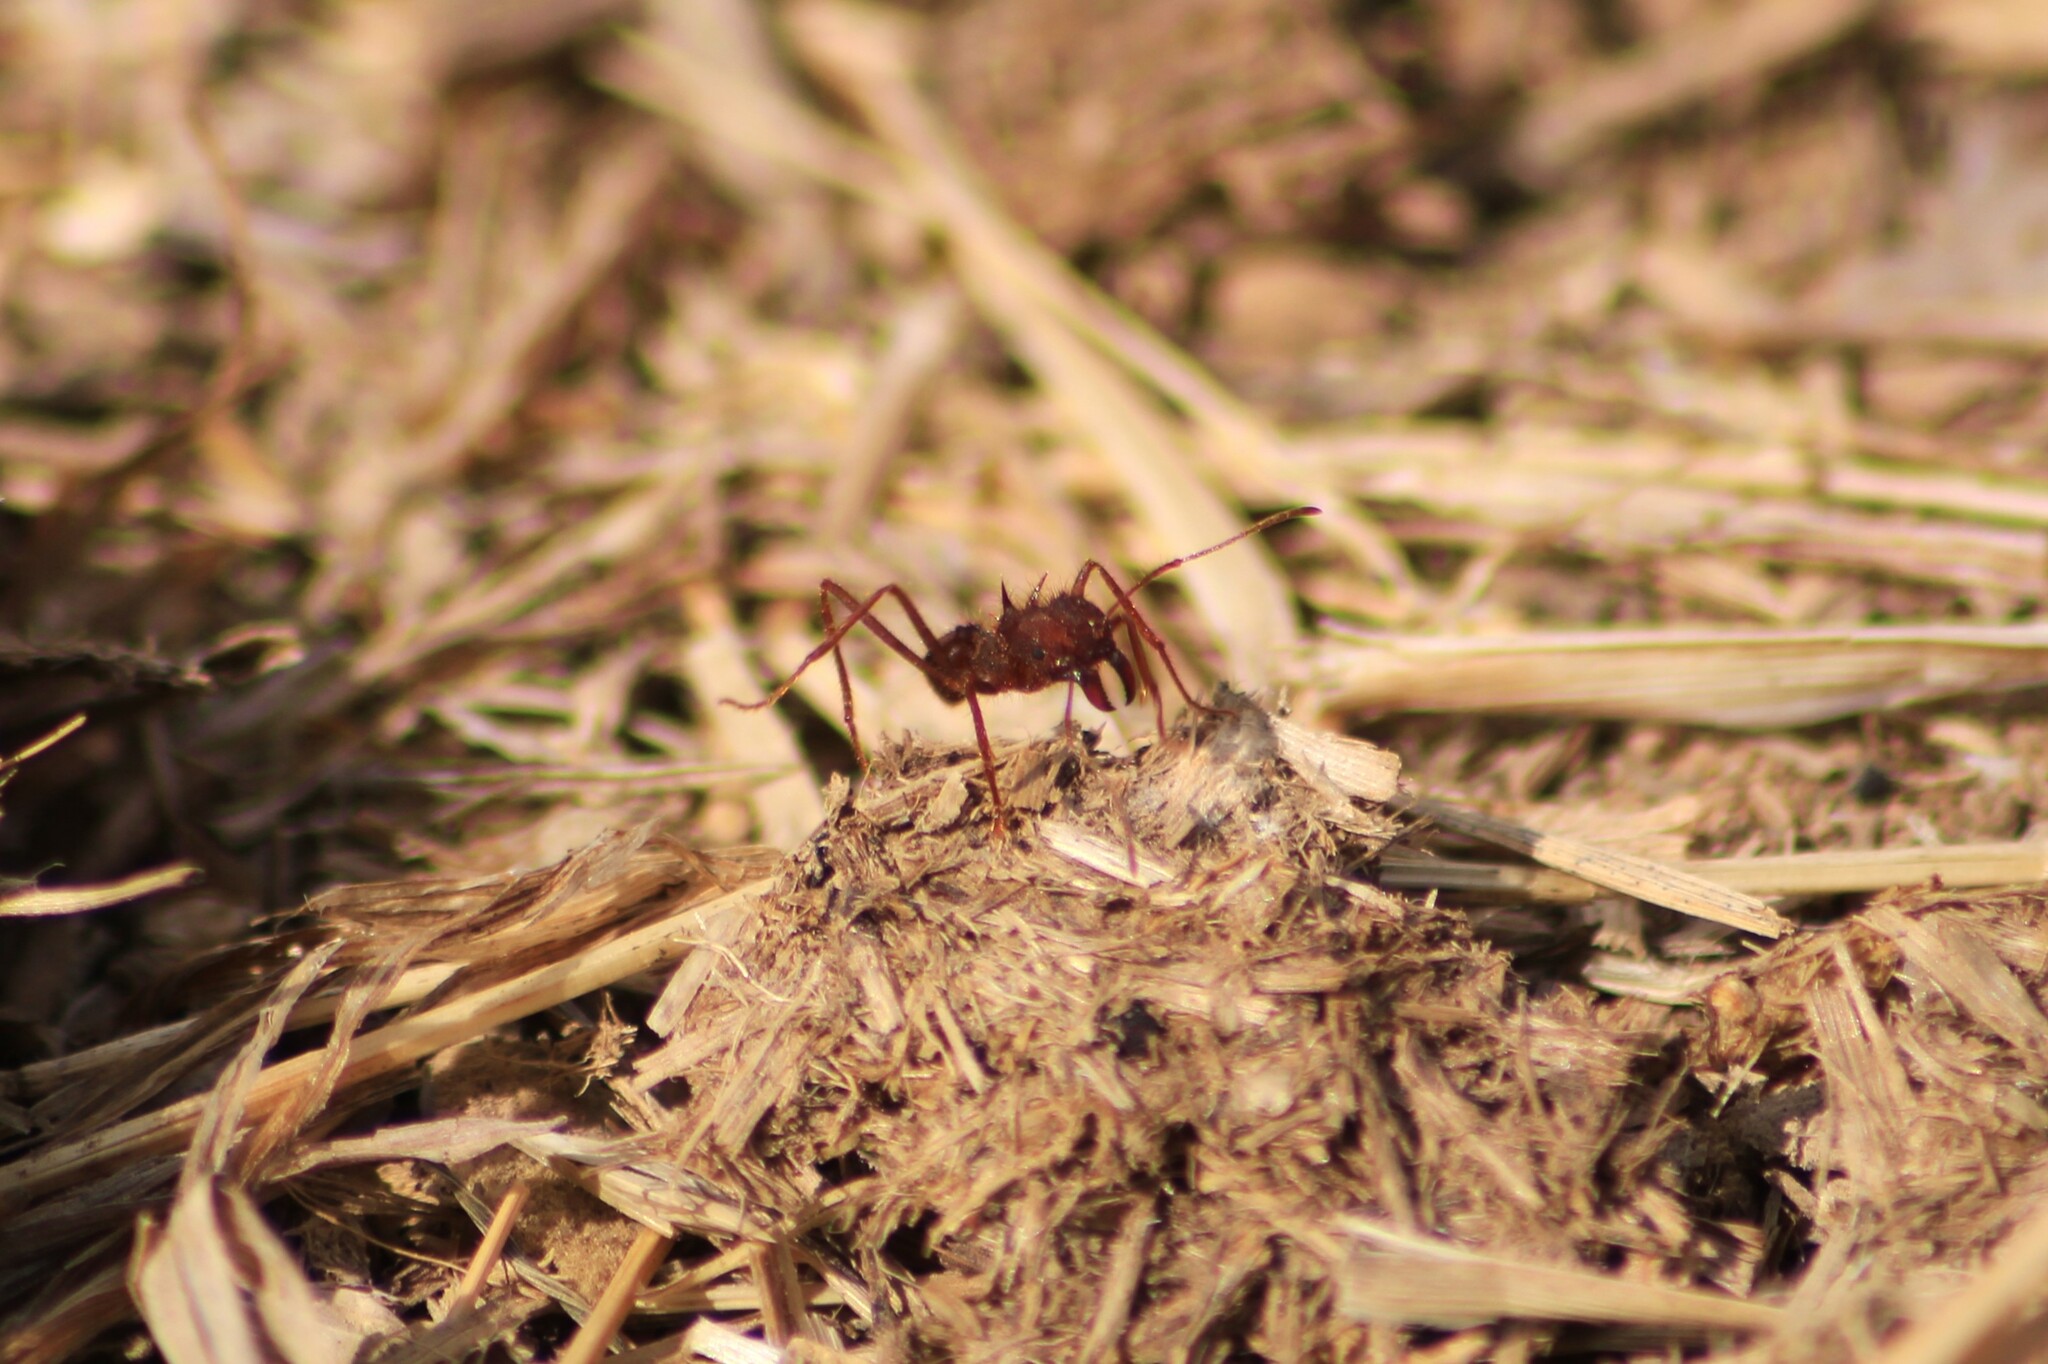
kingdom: Animalia
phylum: Arthropoda
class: Insecta
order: Hymenoptera
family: Formicidae
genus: Atta
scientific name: Atta mexicana
